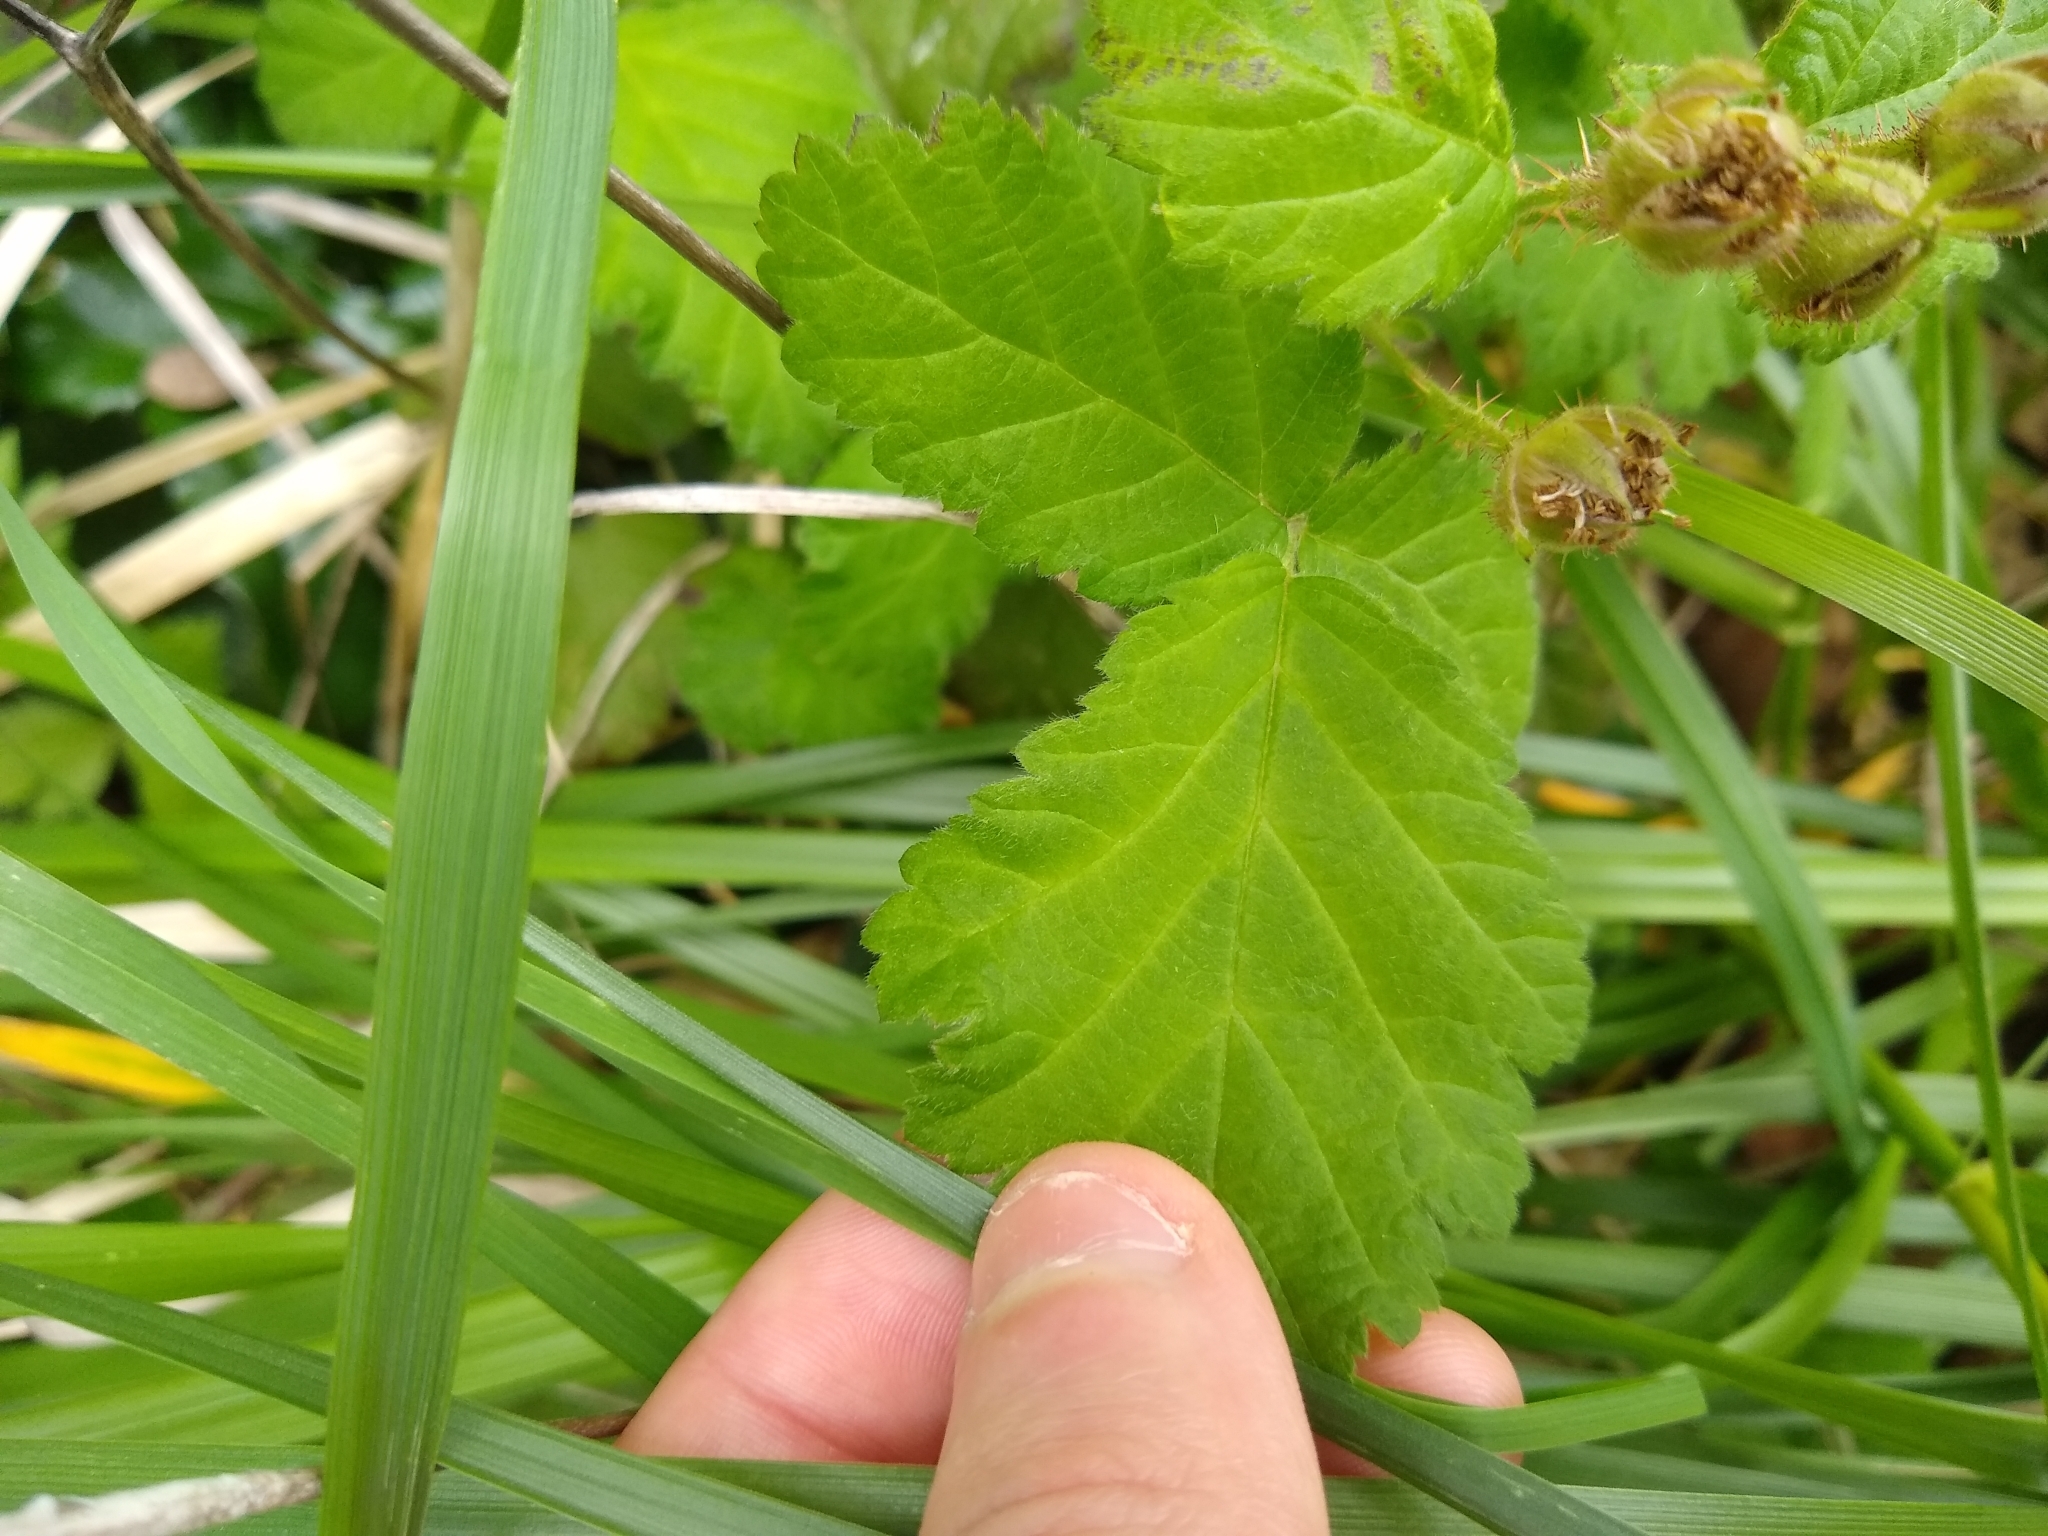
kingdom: Plantae
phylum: Tracheophyta
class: Magnoliopsida
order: Rosales
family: Rosaceae
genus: Rubus
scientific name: Rubus ursinus
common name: Pacific blackberry
